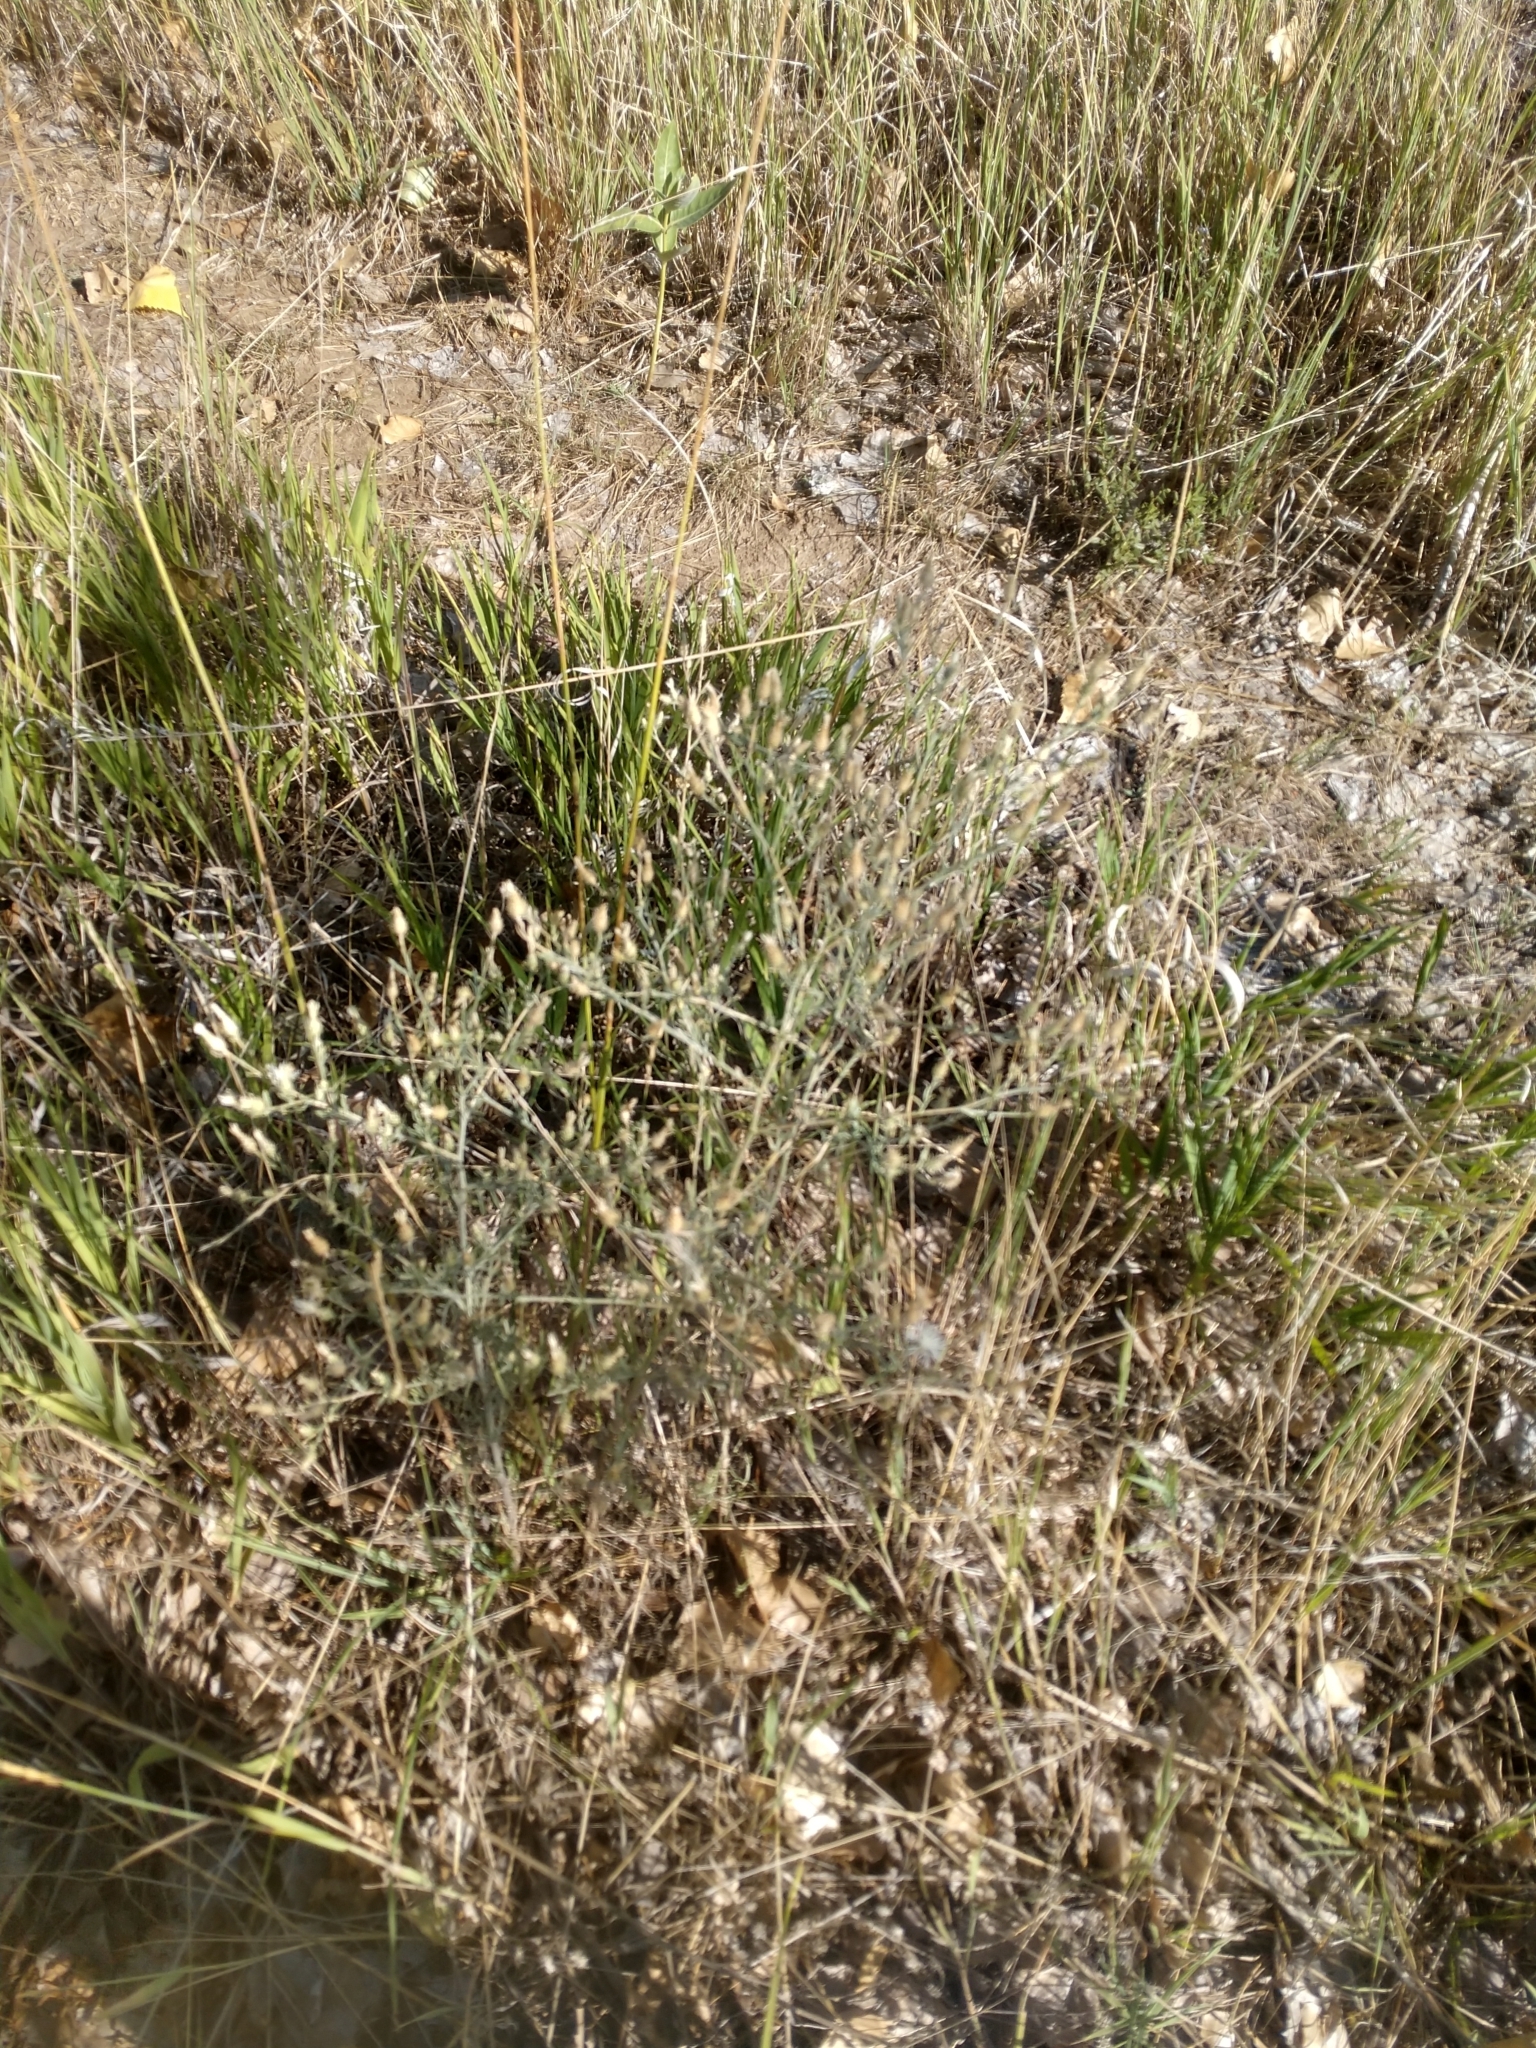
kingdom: Plantae
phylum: Tracheophyta
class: Magnoliopsida
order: Asterales
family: Asteraceae
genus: Centaurea
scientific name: Centaurea diffusa
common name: Diffuse knapweed
